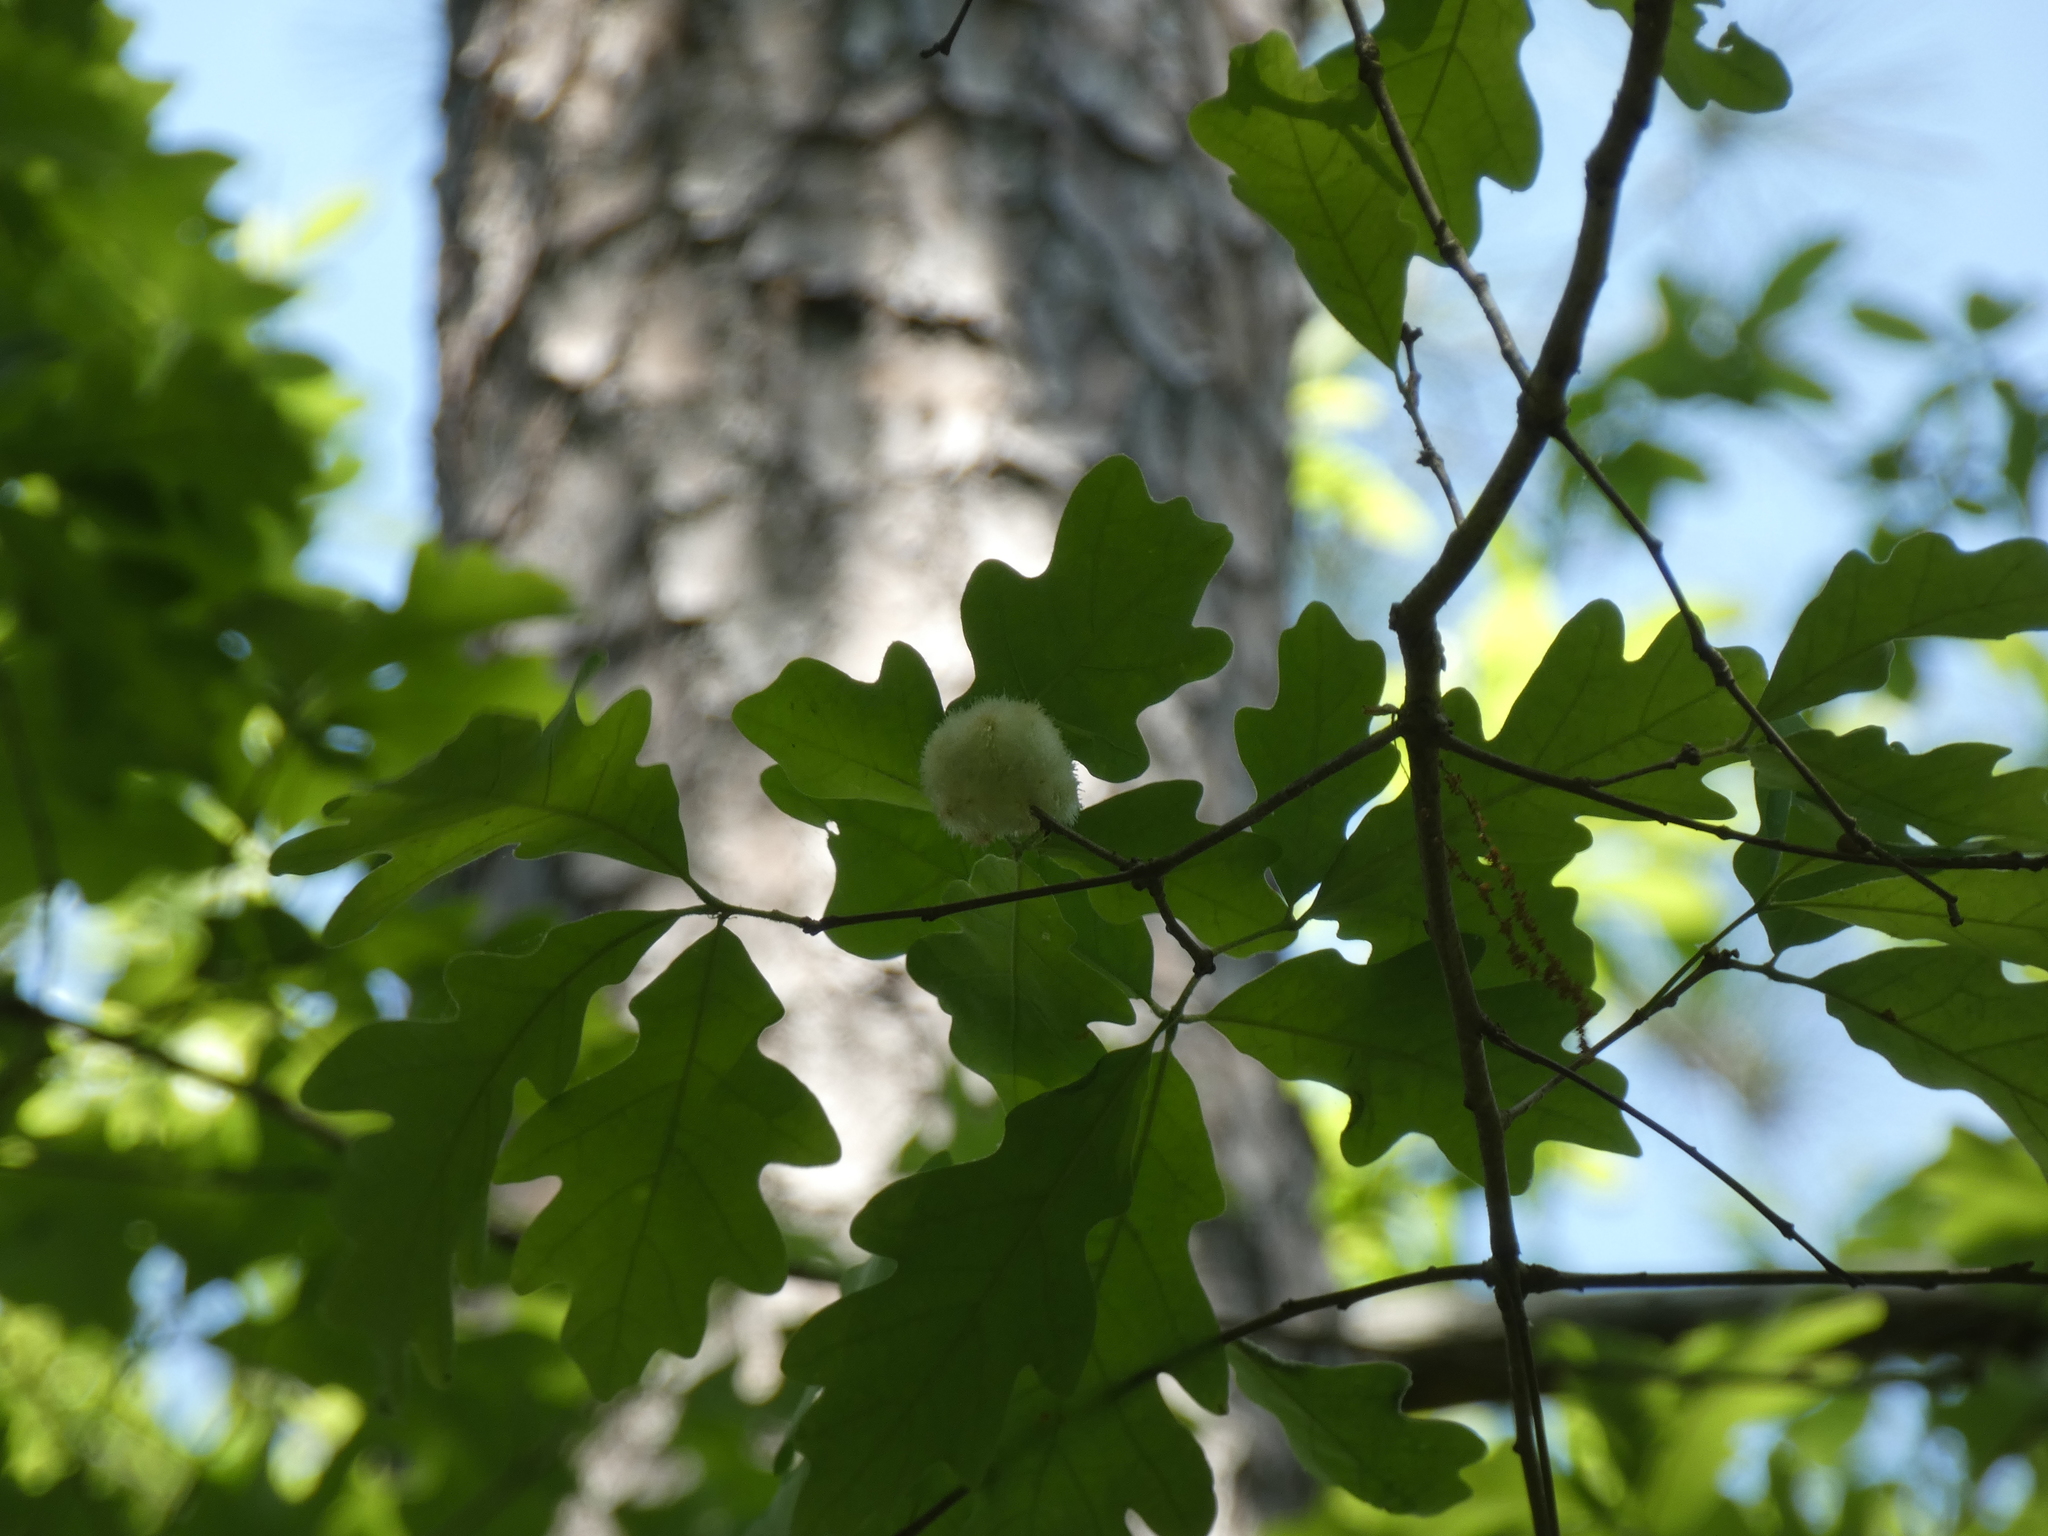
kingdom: Animalia
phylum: Arthropoda
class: Insecta
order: Hymenoptera
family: Cynipidae
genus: Callirhytis
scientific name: Callirhytis
